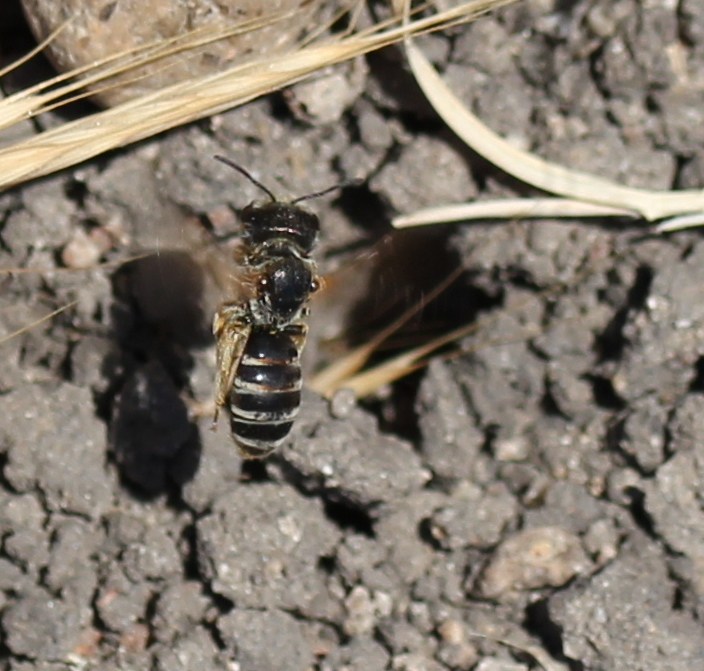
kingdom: Animalia
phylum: Arthropoda
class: Insecta
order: Hymenoptera
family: Halictidae
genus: Halictus
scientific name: Halictus ligatus
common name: Ligated furrow bee
